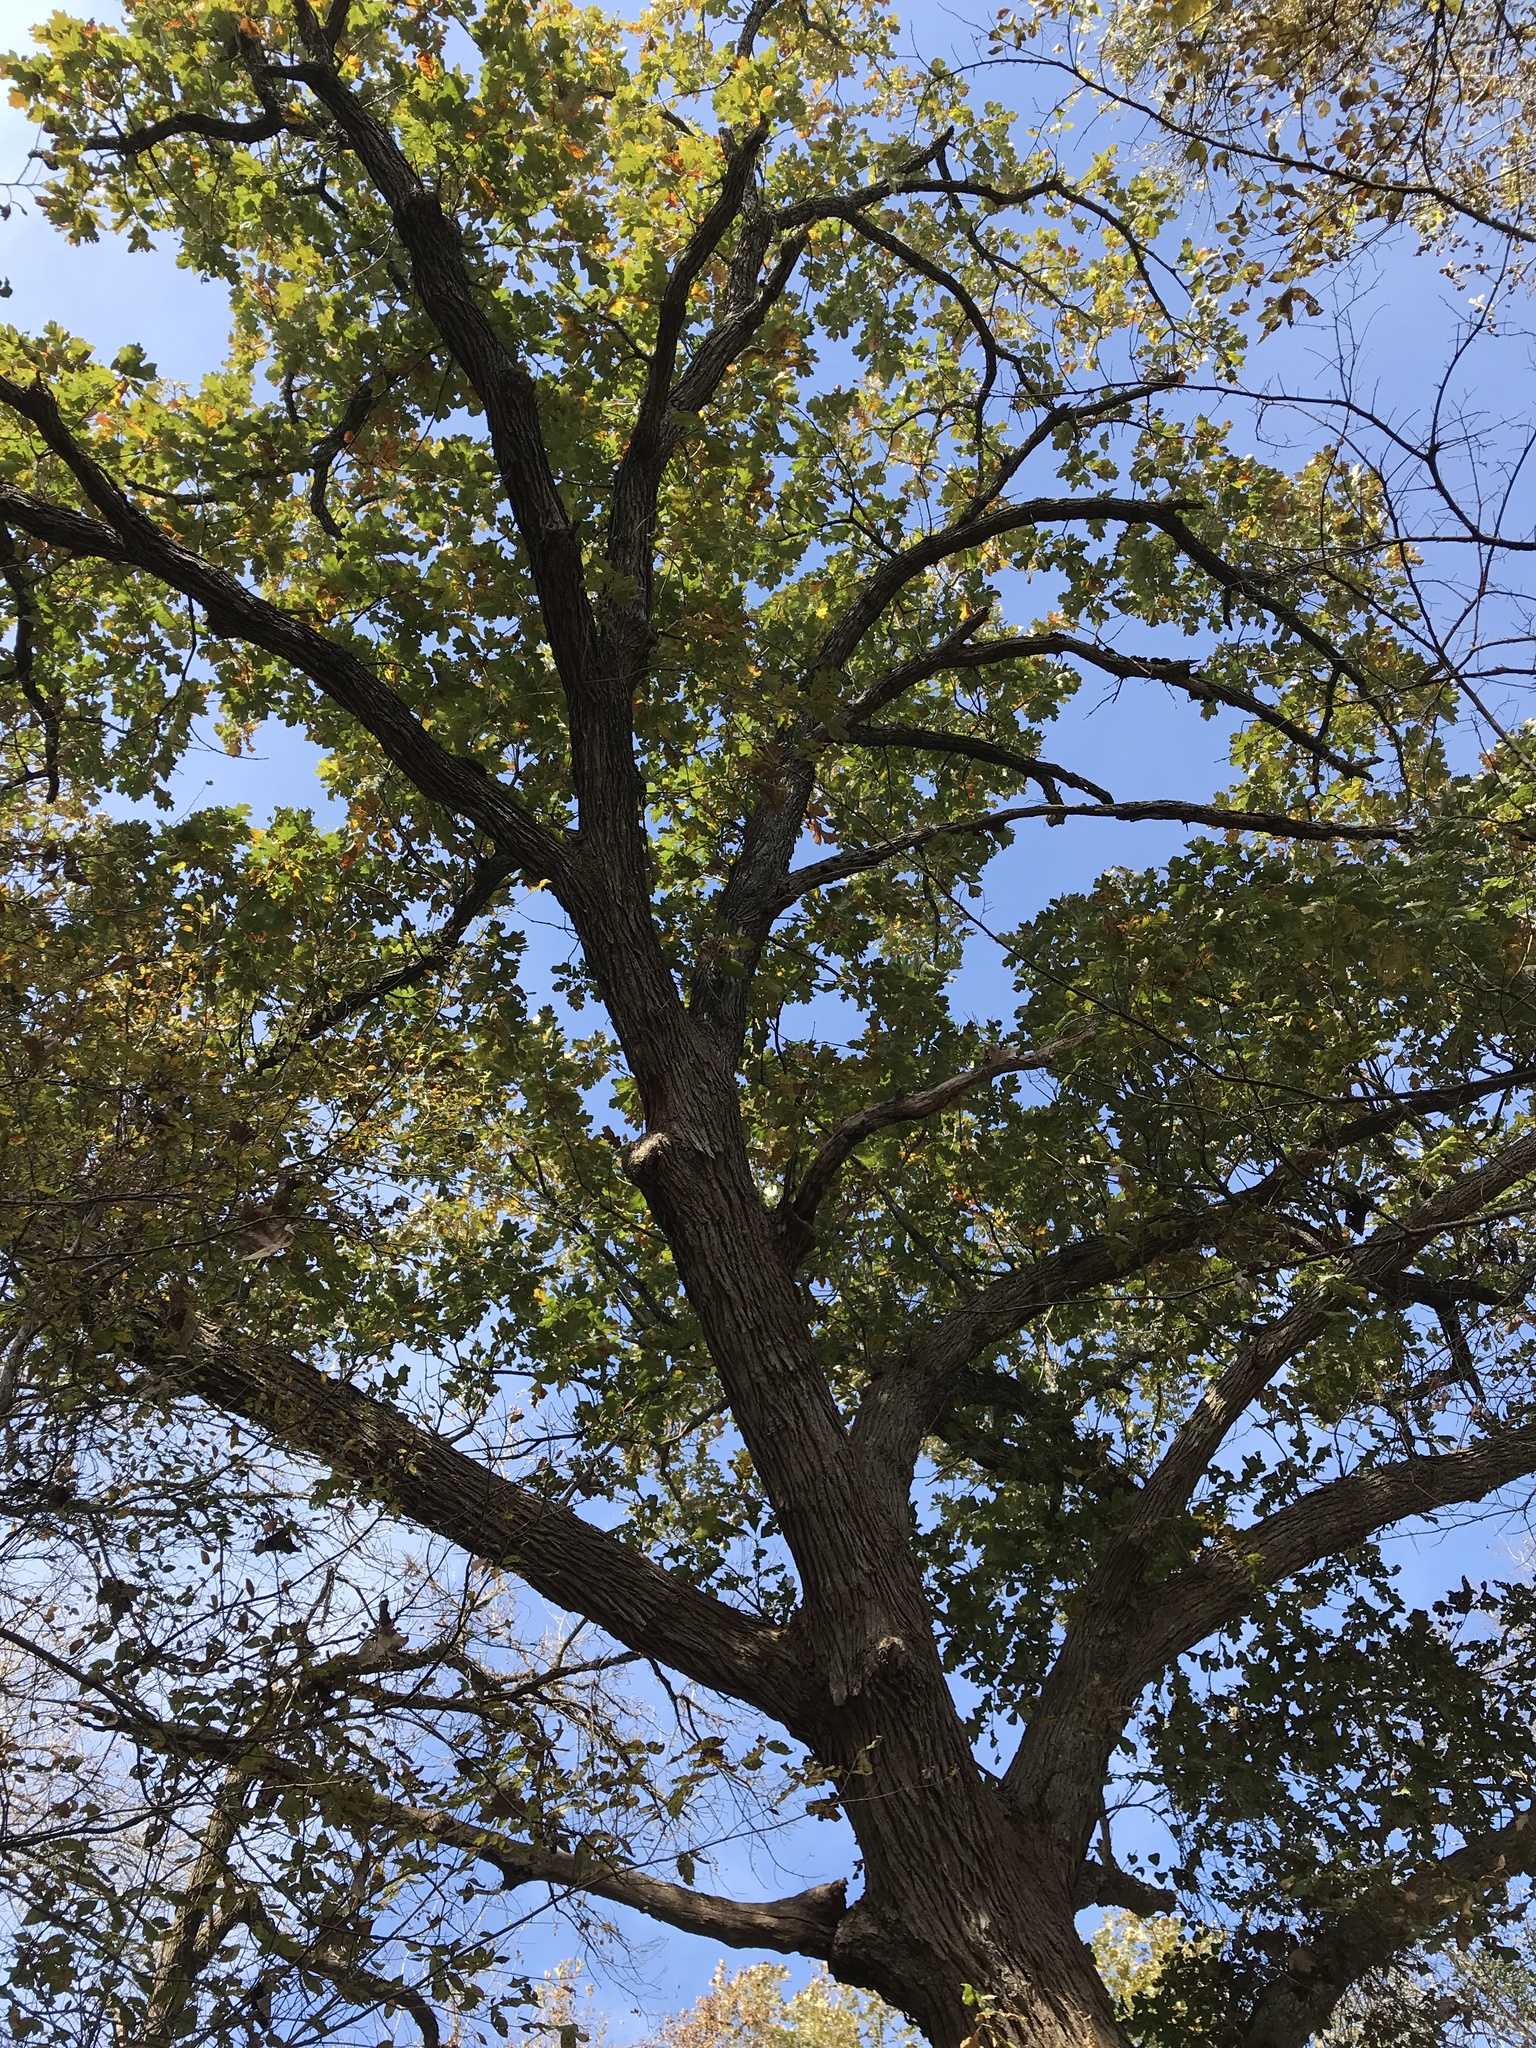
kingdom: Plantae
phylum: Tracheophyta
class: Magnoliopsida
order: Fagales
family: Fagaceae
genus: Quercus
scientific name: Quercus macrocarpa
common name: Bur oak
